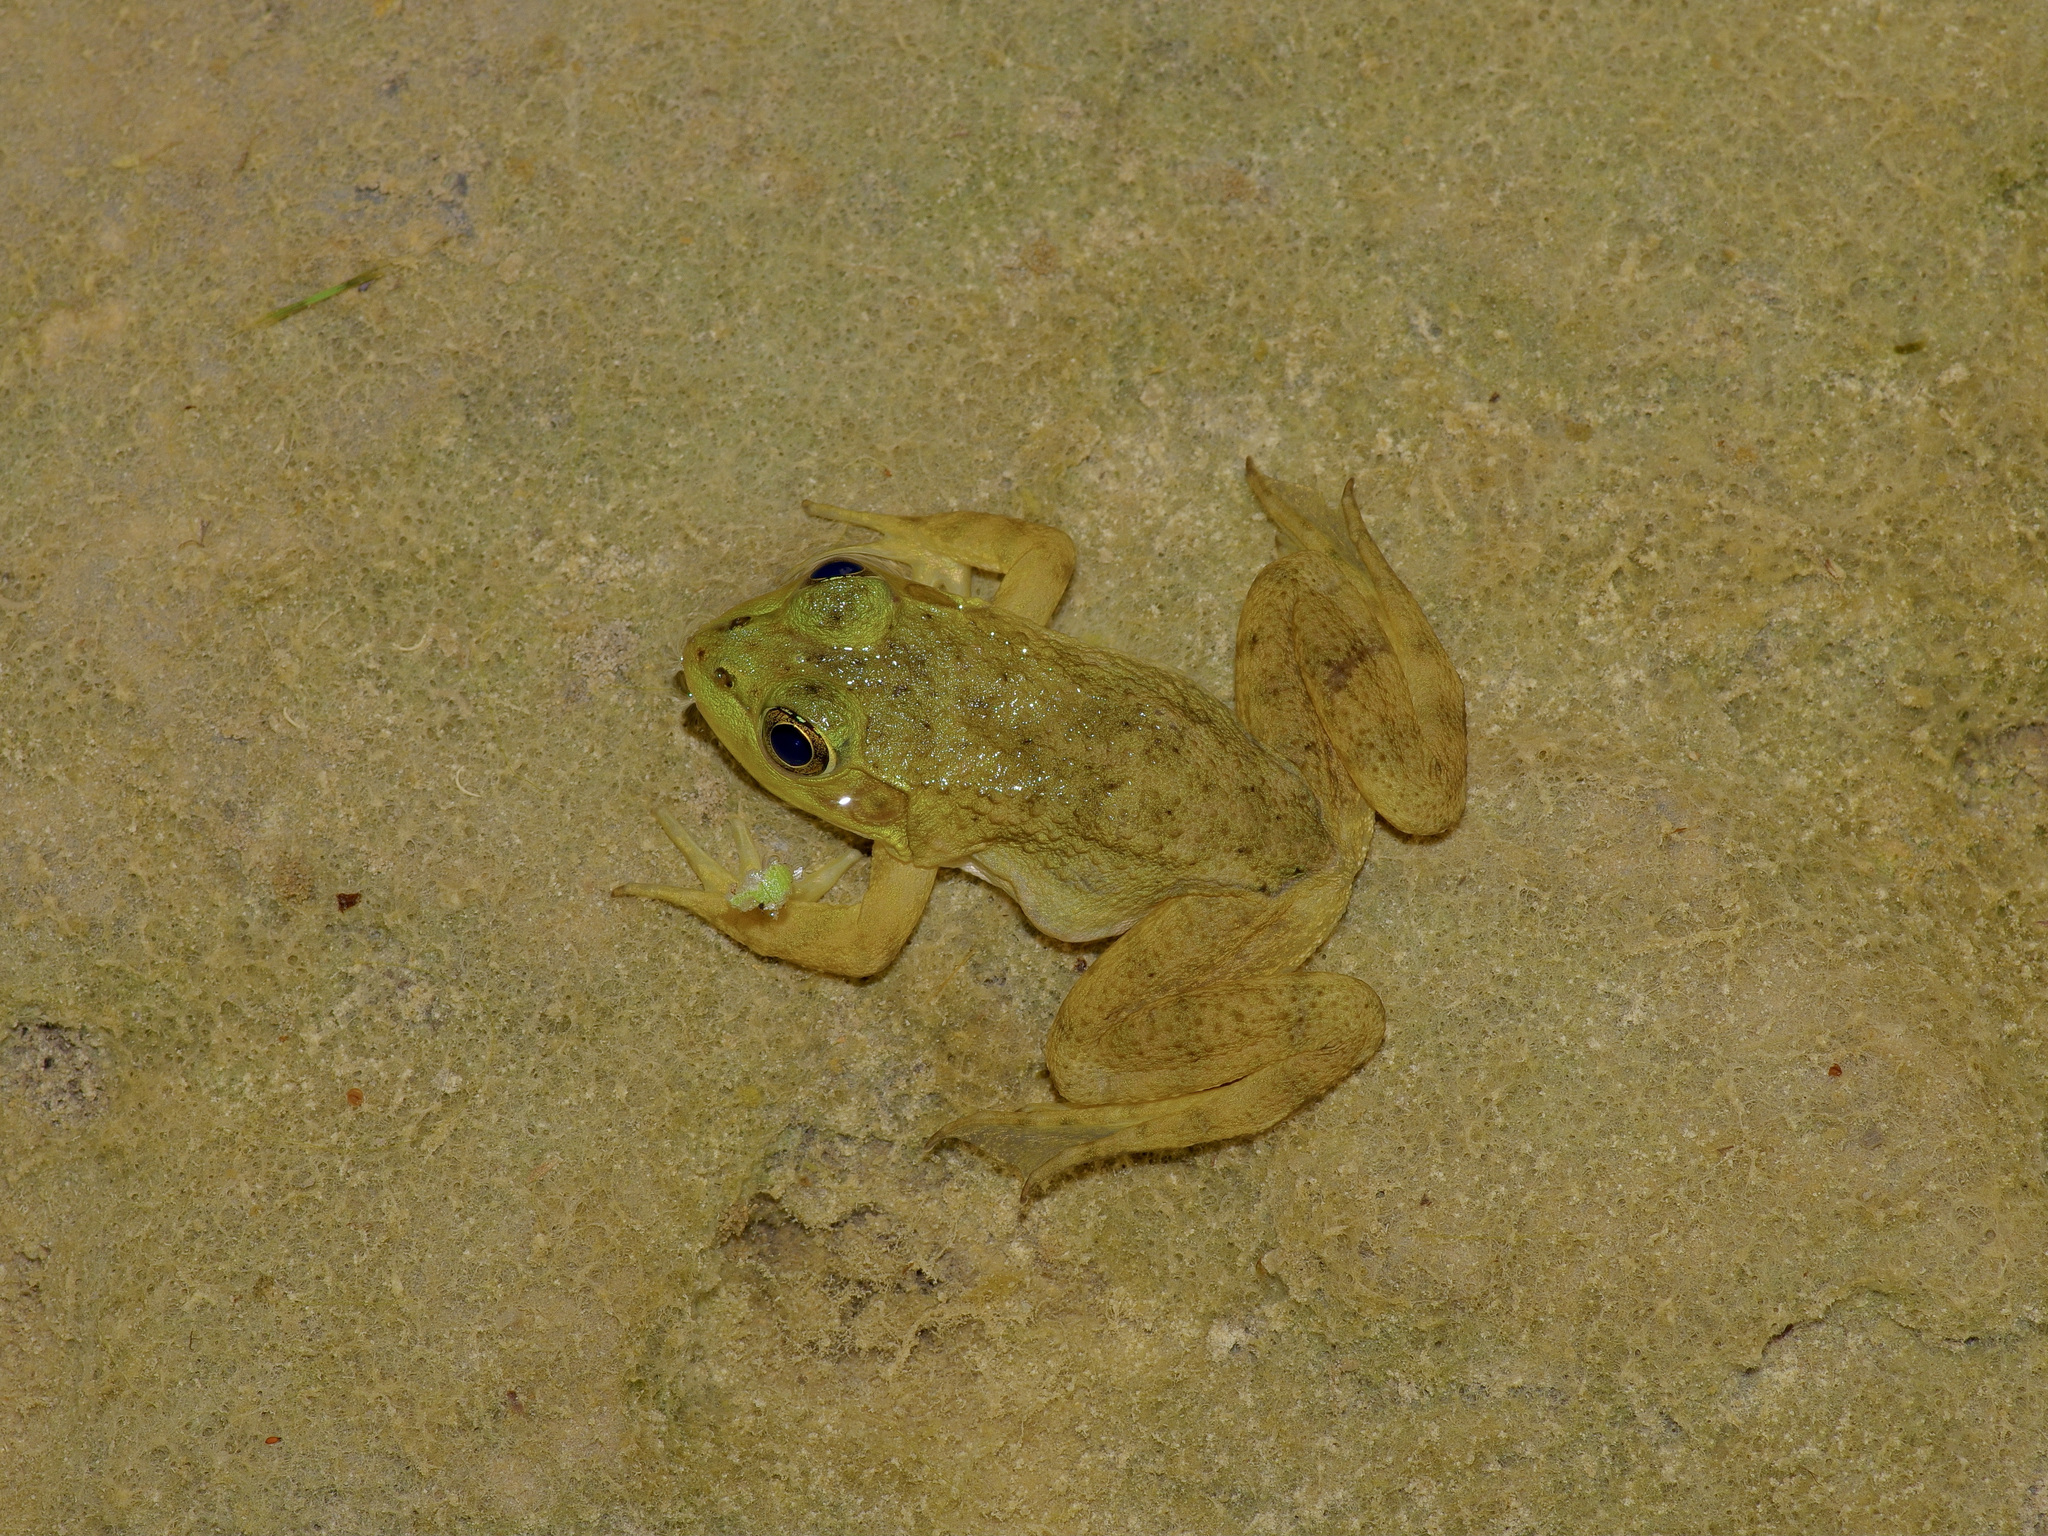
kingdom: Animalia
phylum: Chordata
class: Amphibia
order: Anura
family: Ranidae
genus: Lithobates
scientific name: Lithobates catesbeianus
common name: American bullfrog
